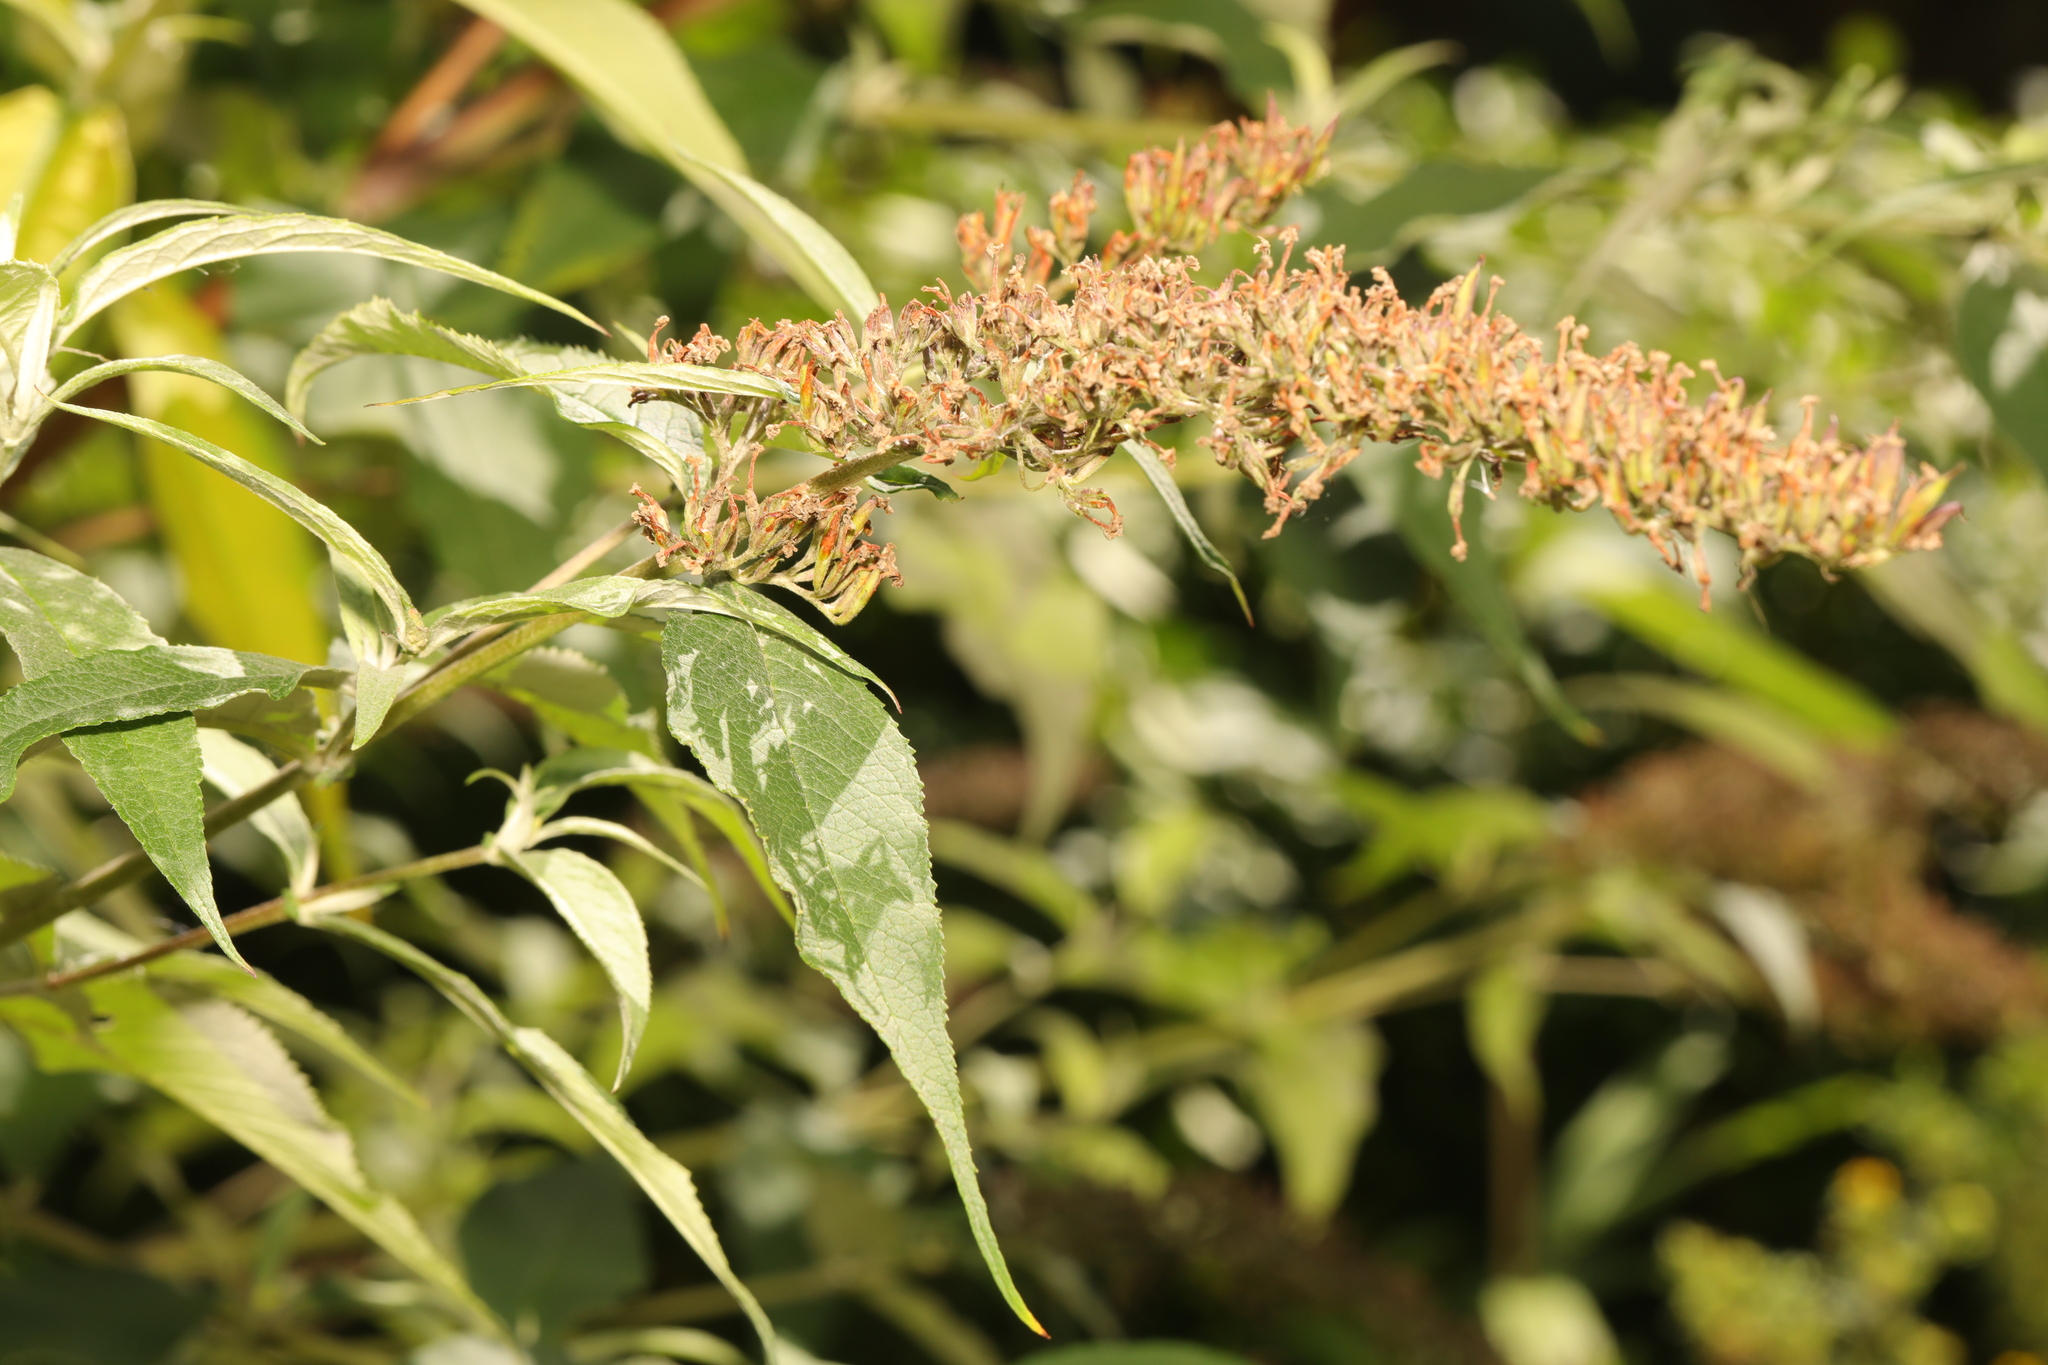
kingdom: Plantae
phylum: Tracheophyta
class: Magnoliopsida
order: Lamiales
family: Scrophulariaceae
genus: Buddleja
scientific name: Buddleja davidii
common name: Butterfly-bush
